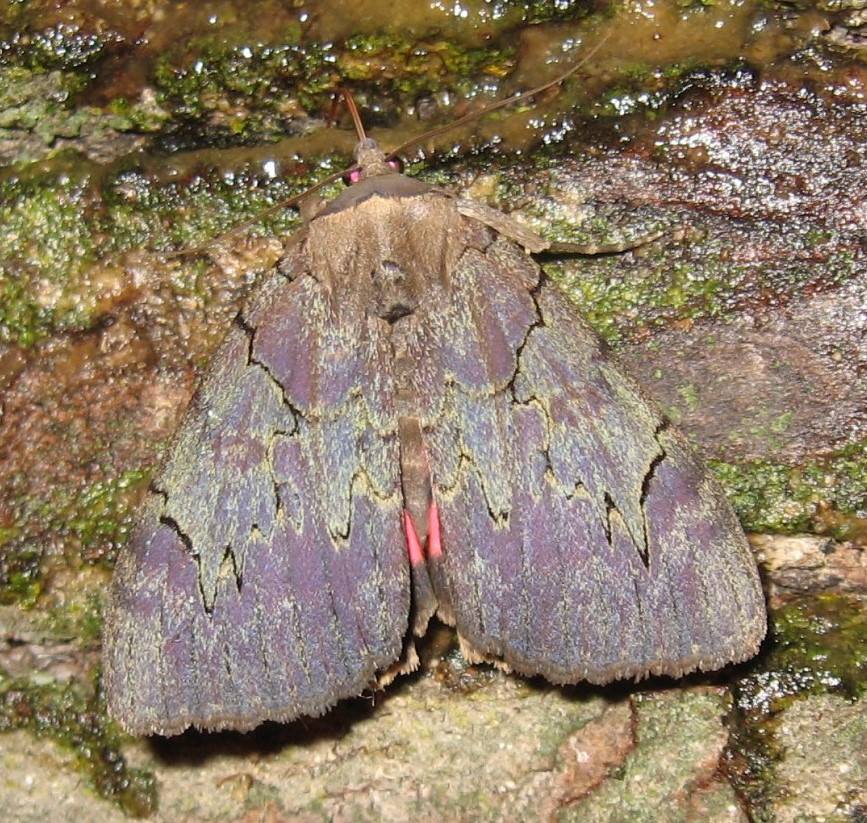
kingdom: Animalia
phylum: Arthropoda
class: Insecta
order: Lepidoptera
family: Erebidae
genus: Catocala
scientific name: Catocala cara
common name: Darling underwing
